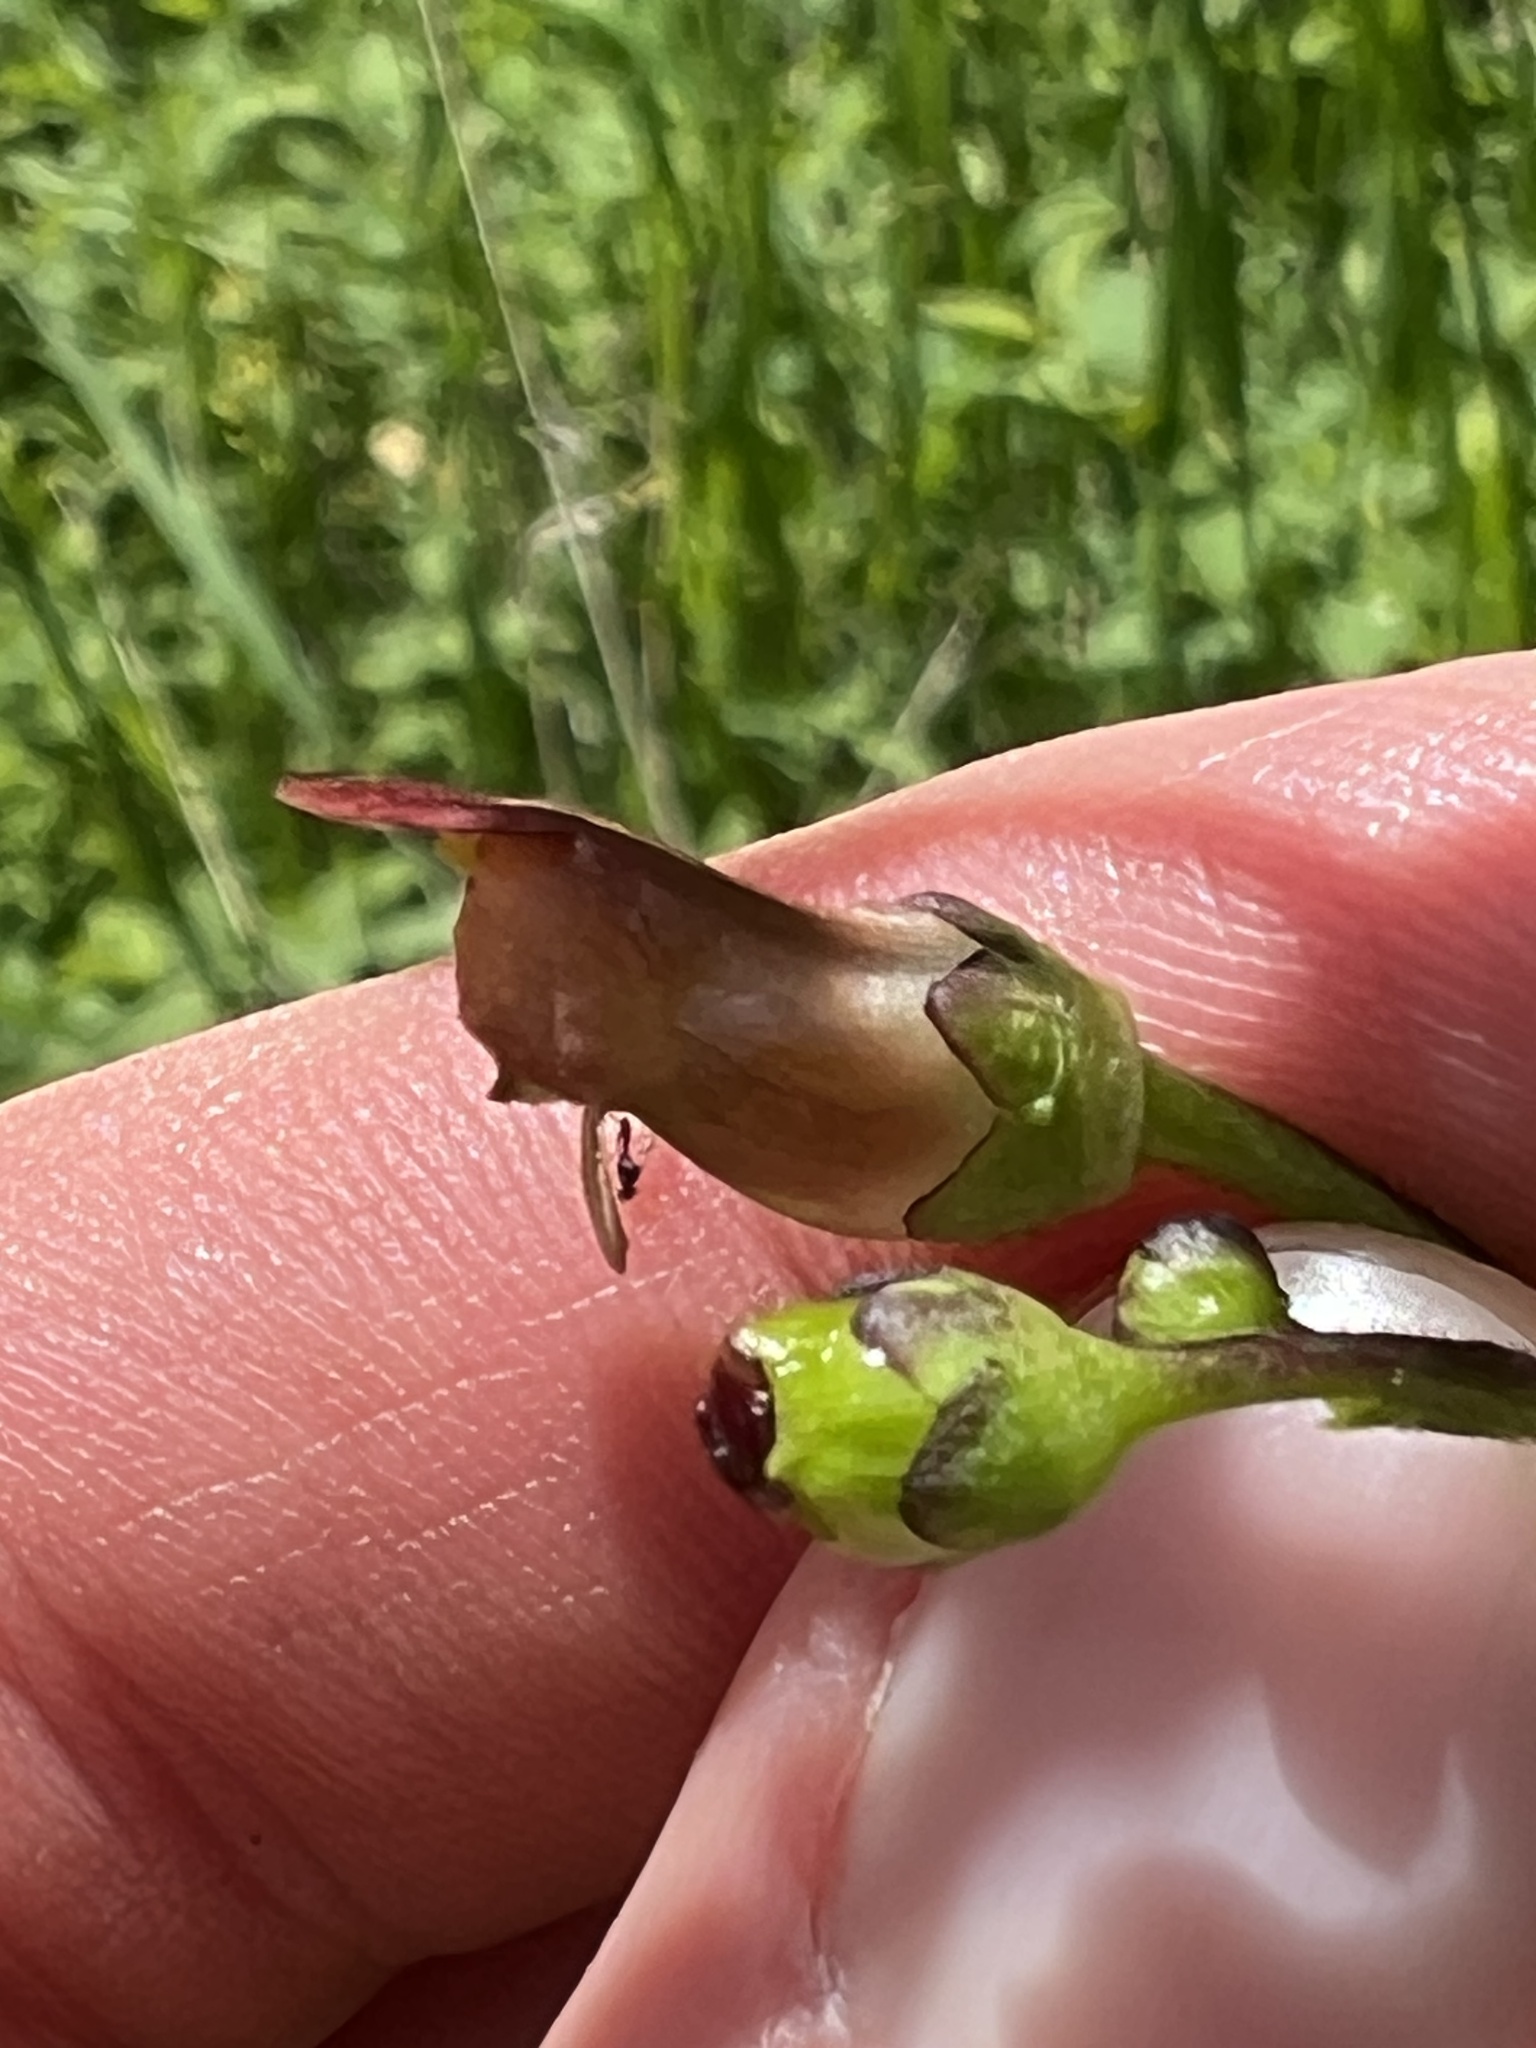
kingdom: Plantae
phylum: Tracheophyta
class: Magnoliopsida
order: Lamiales
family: Scrophulariaceae
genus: Scrophularia
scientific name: Scrophularia lanceolata
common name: American figwort
